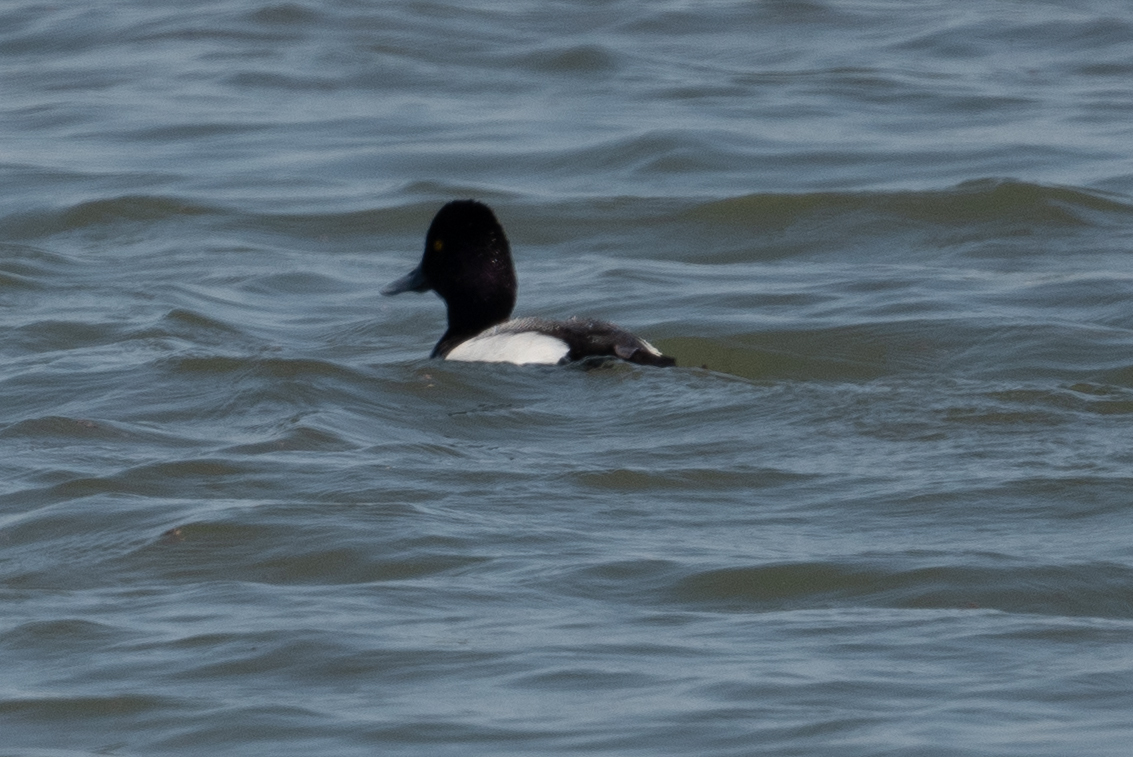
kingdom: Animalia
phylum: Chordata
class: Aves
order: Anseriformes
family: Anatidae
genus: Aythya
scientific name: Aythya affinis
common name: Lesser scaup
